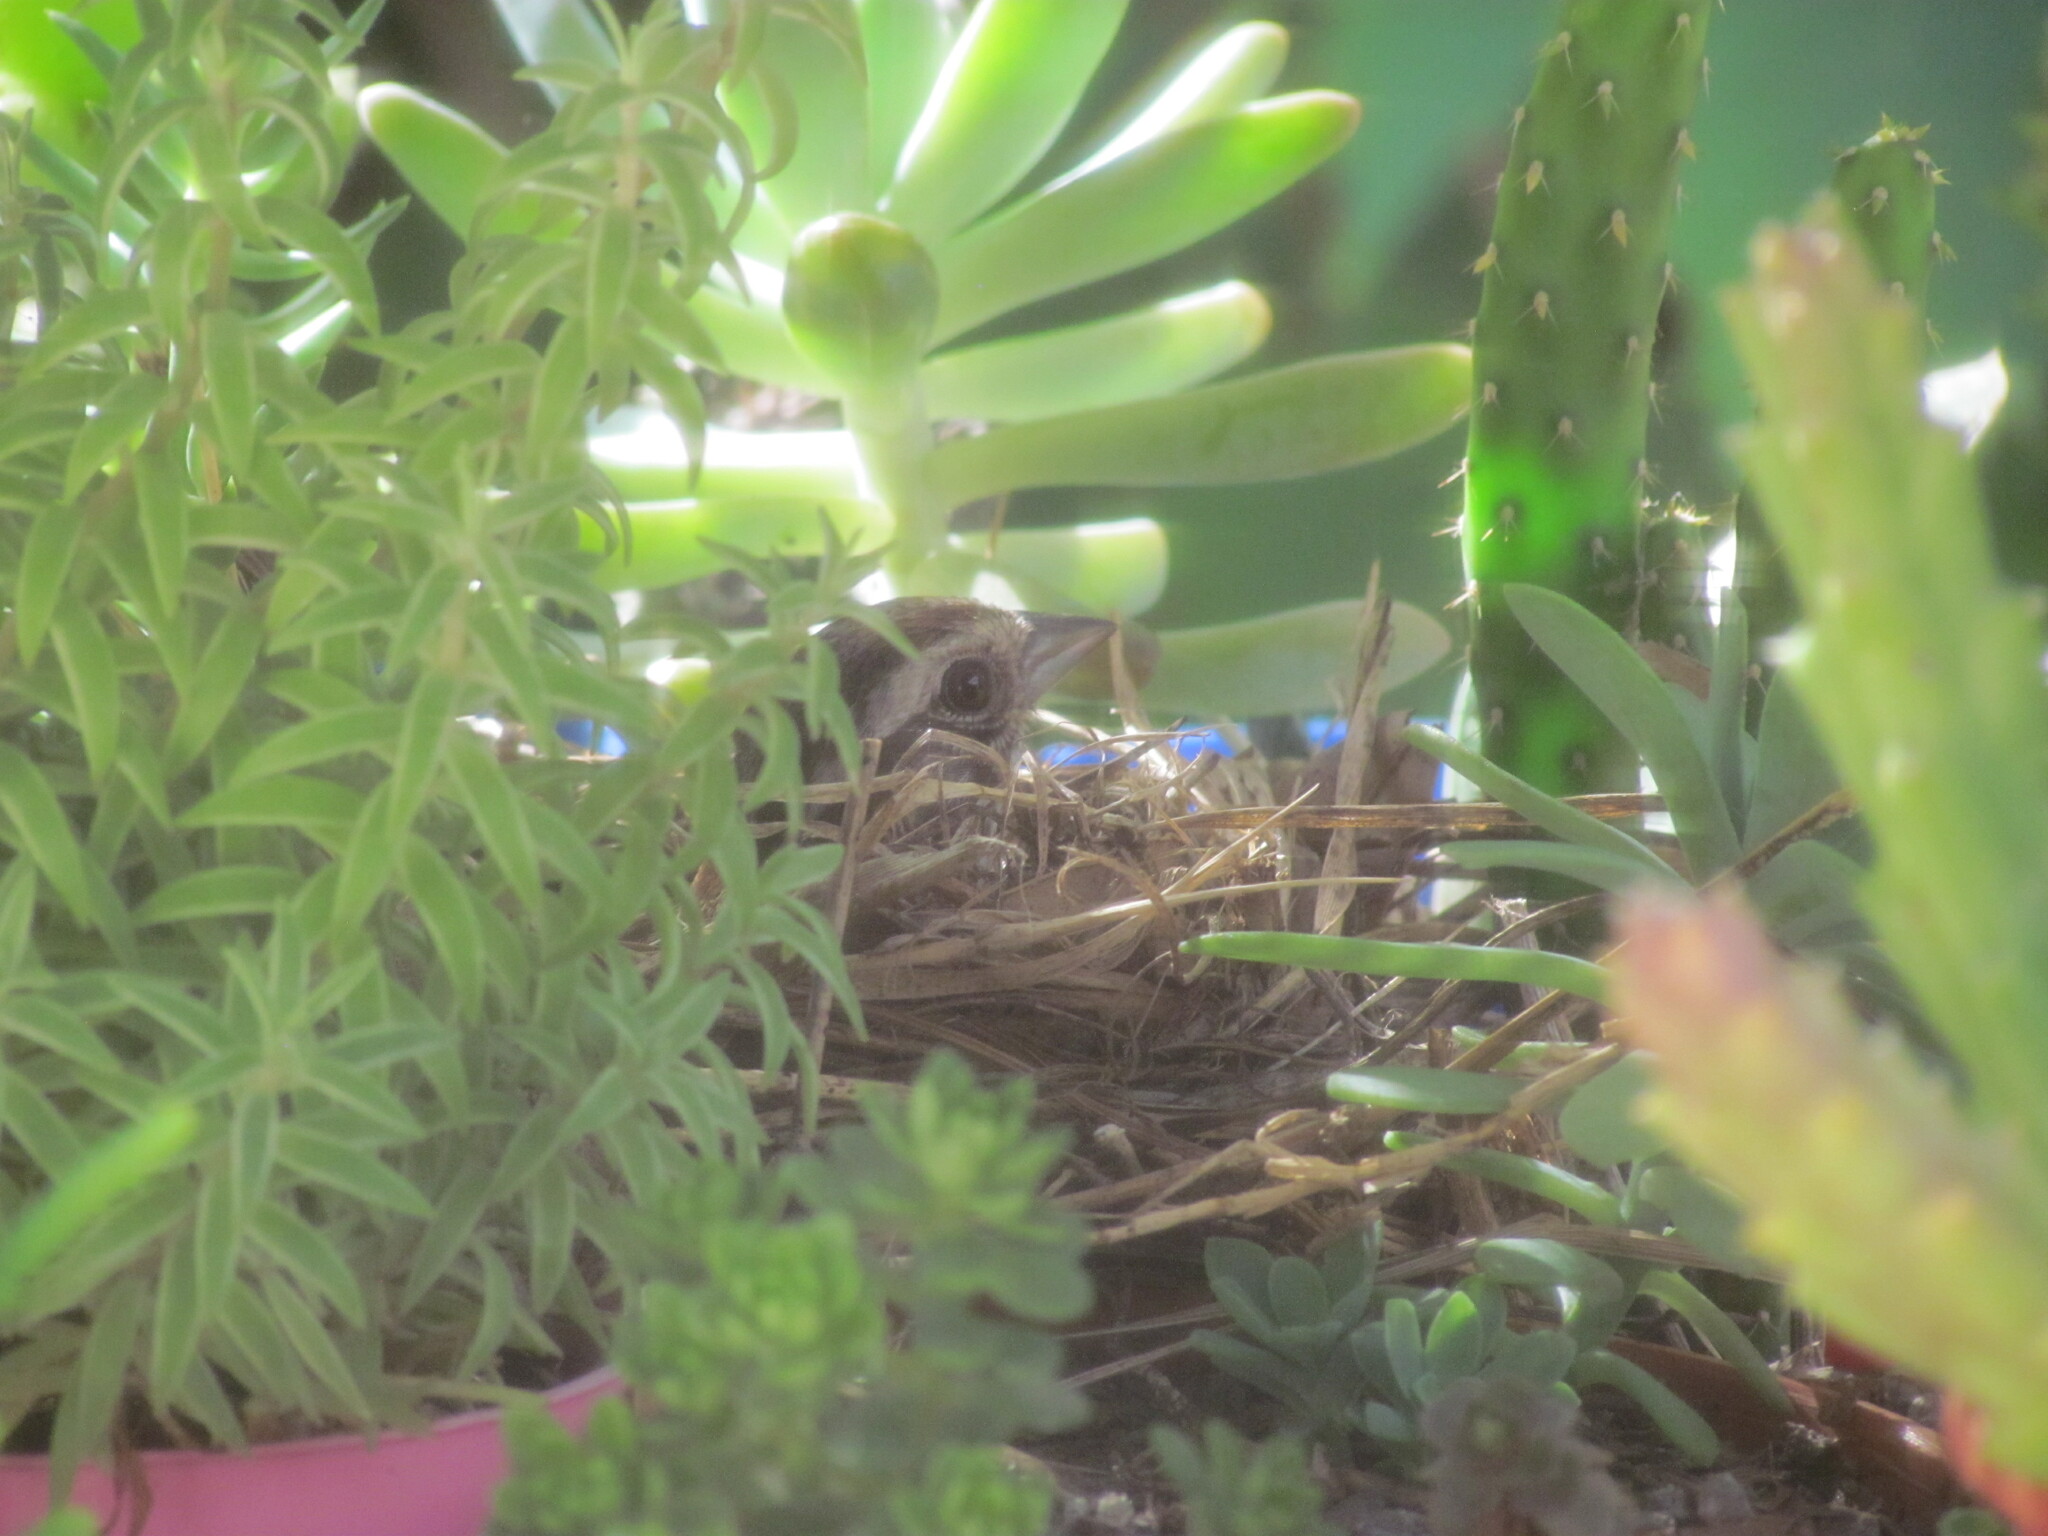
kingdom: Animalia
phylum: Chordata
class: Aves
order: Passeriformes
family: Passerellidae
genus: Zonotrichia
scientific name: Zonotrichia capensis
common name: Rufous-collared sparrow
